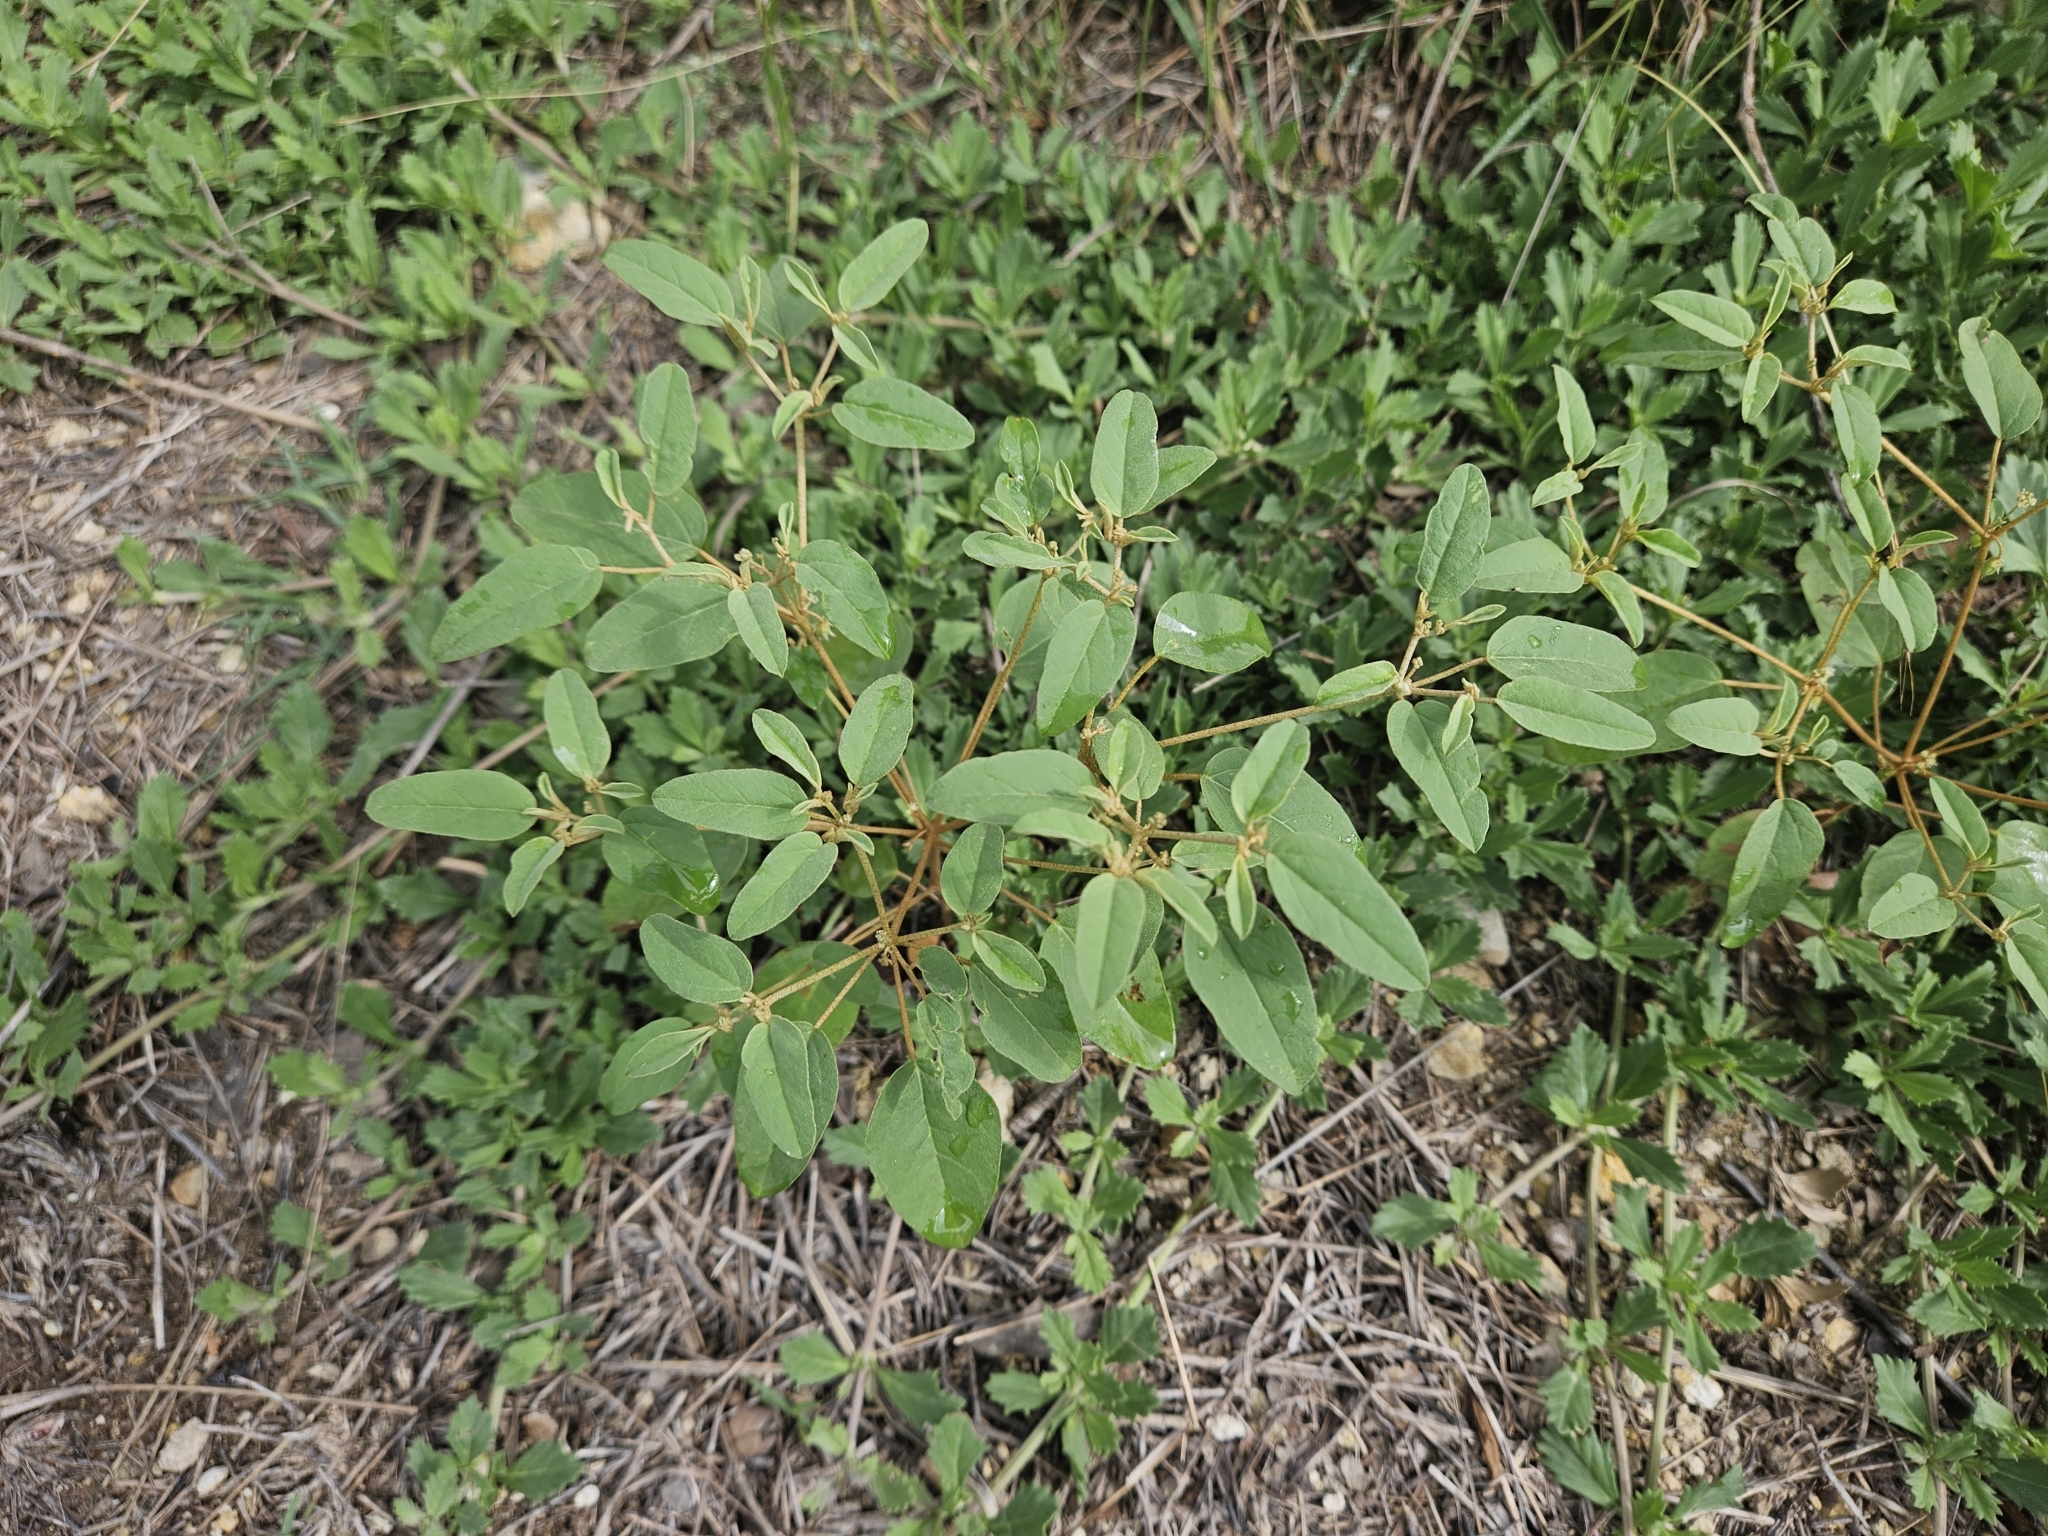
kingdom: Plantae
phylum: Tracheophyta
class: Magnoliopsida
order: Malpighiales
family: Euphorbiaceae
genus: Croton
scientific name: Croton monanthogynus
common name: One-seed croton
